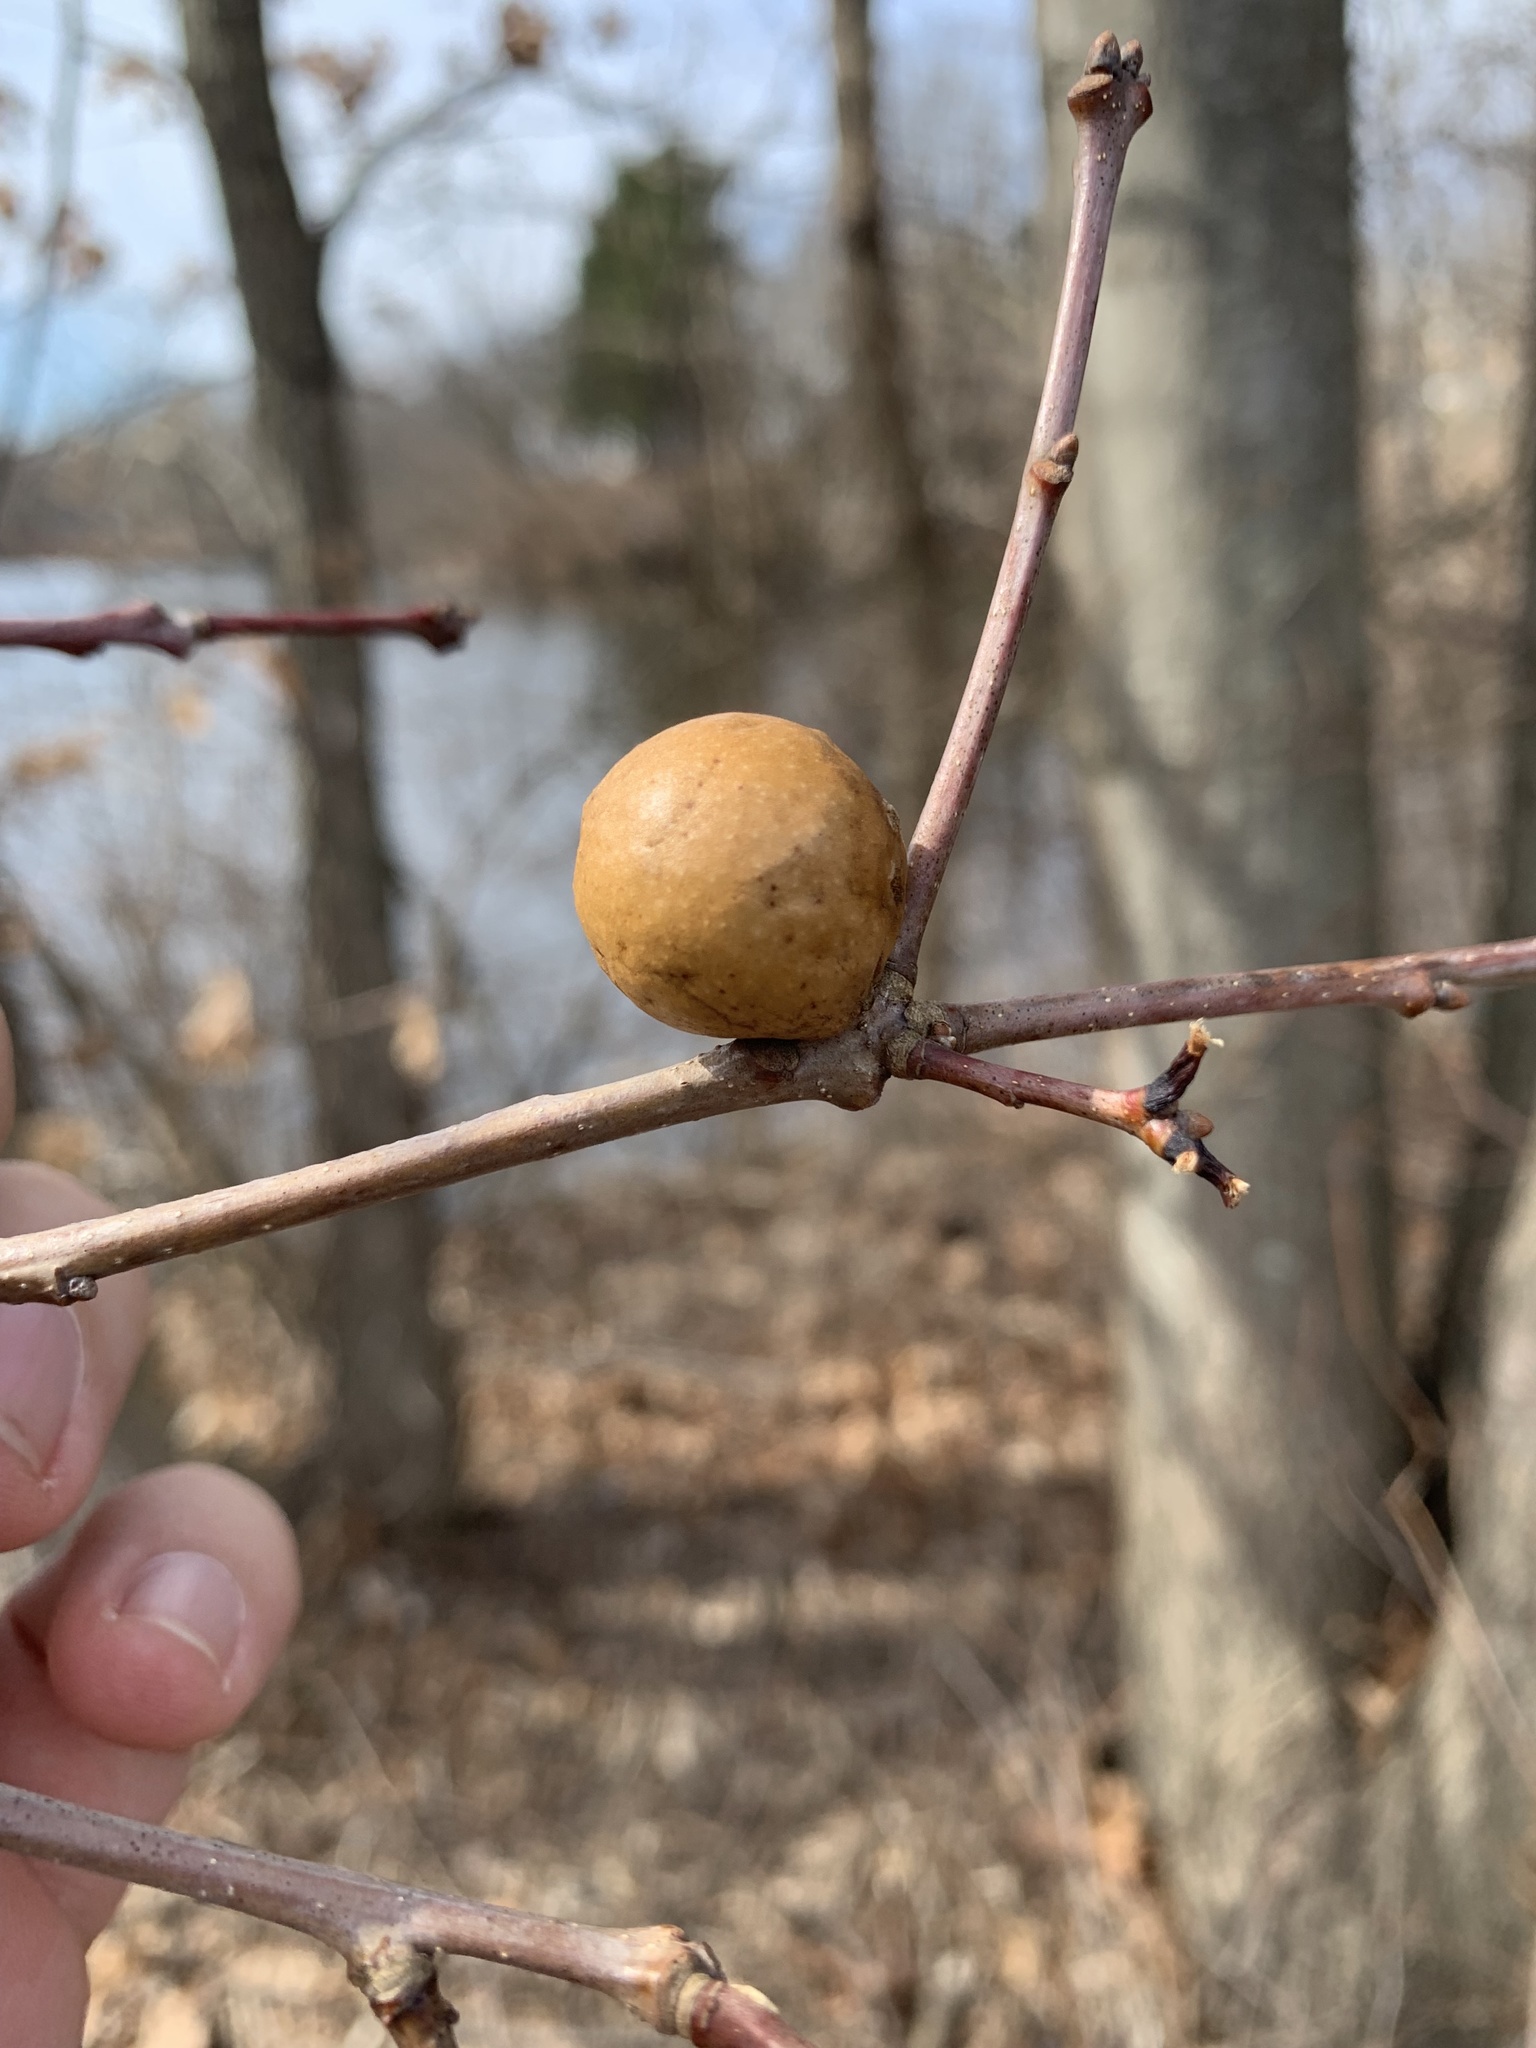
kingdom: Animalia
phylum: Arthropoda
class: Insecta
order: Hymenoptera
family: Cynipidae
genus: Disholcaspis
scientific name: Disholcaspis quercusglobulus
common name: Round bullet gall wasp
